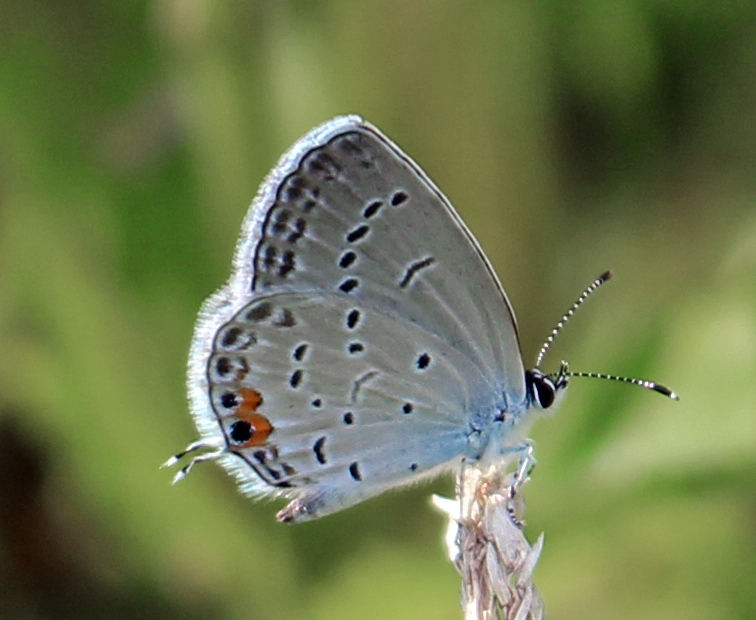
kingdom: Animalia
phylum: Arthropoda
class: Insecta
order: Lepidoptera
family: Lycaenidae
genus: Elkalyce
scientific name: Elkalyce comyntas
